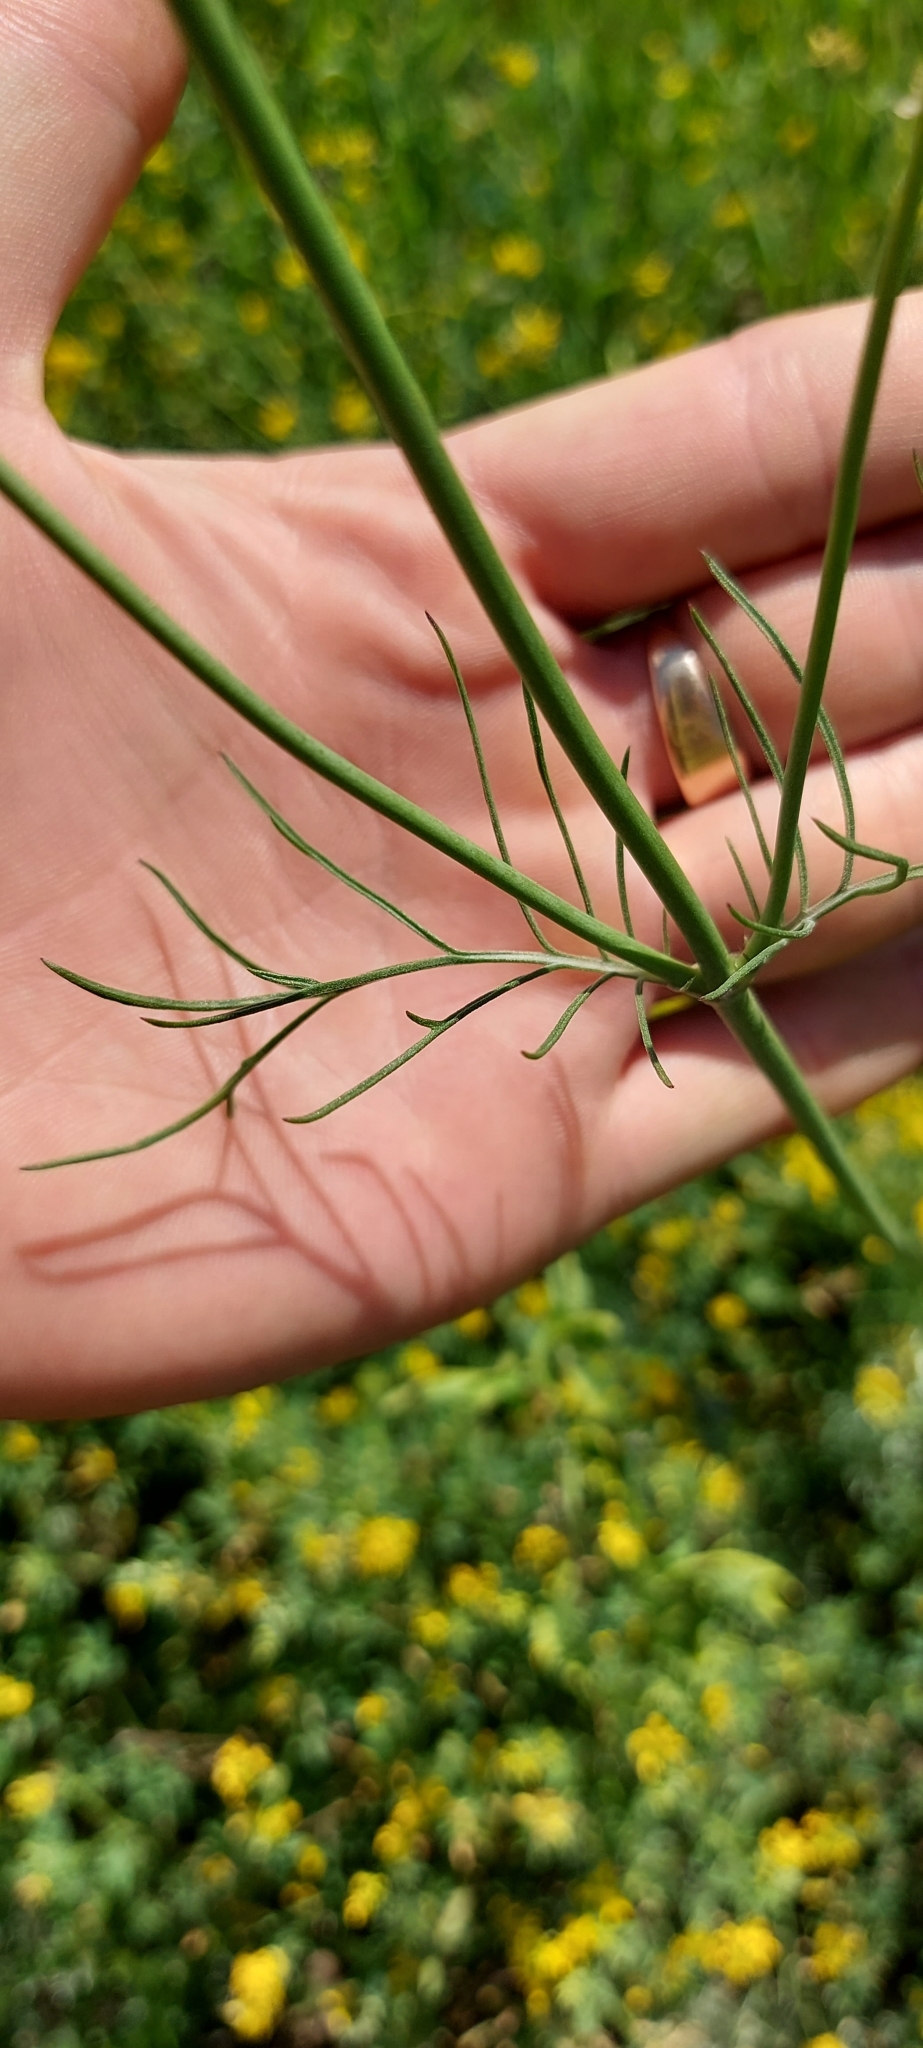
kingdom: Plantae
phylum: Tracheophyta
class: Magnoliopsida
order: Asterales
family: Asteraceae
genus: Tripleurospermum
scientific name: Tripleurospermum inodorum
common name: Scentless mayweed
